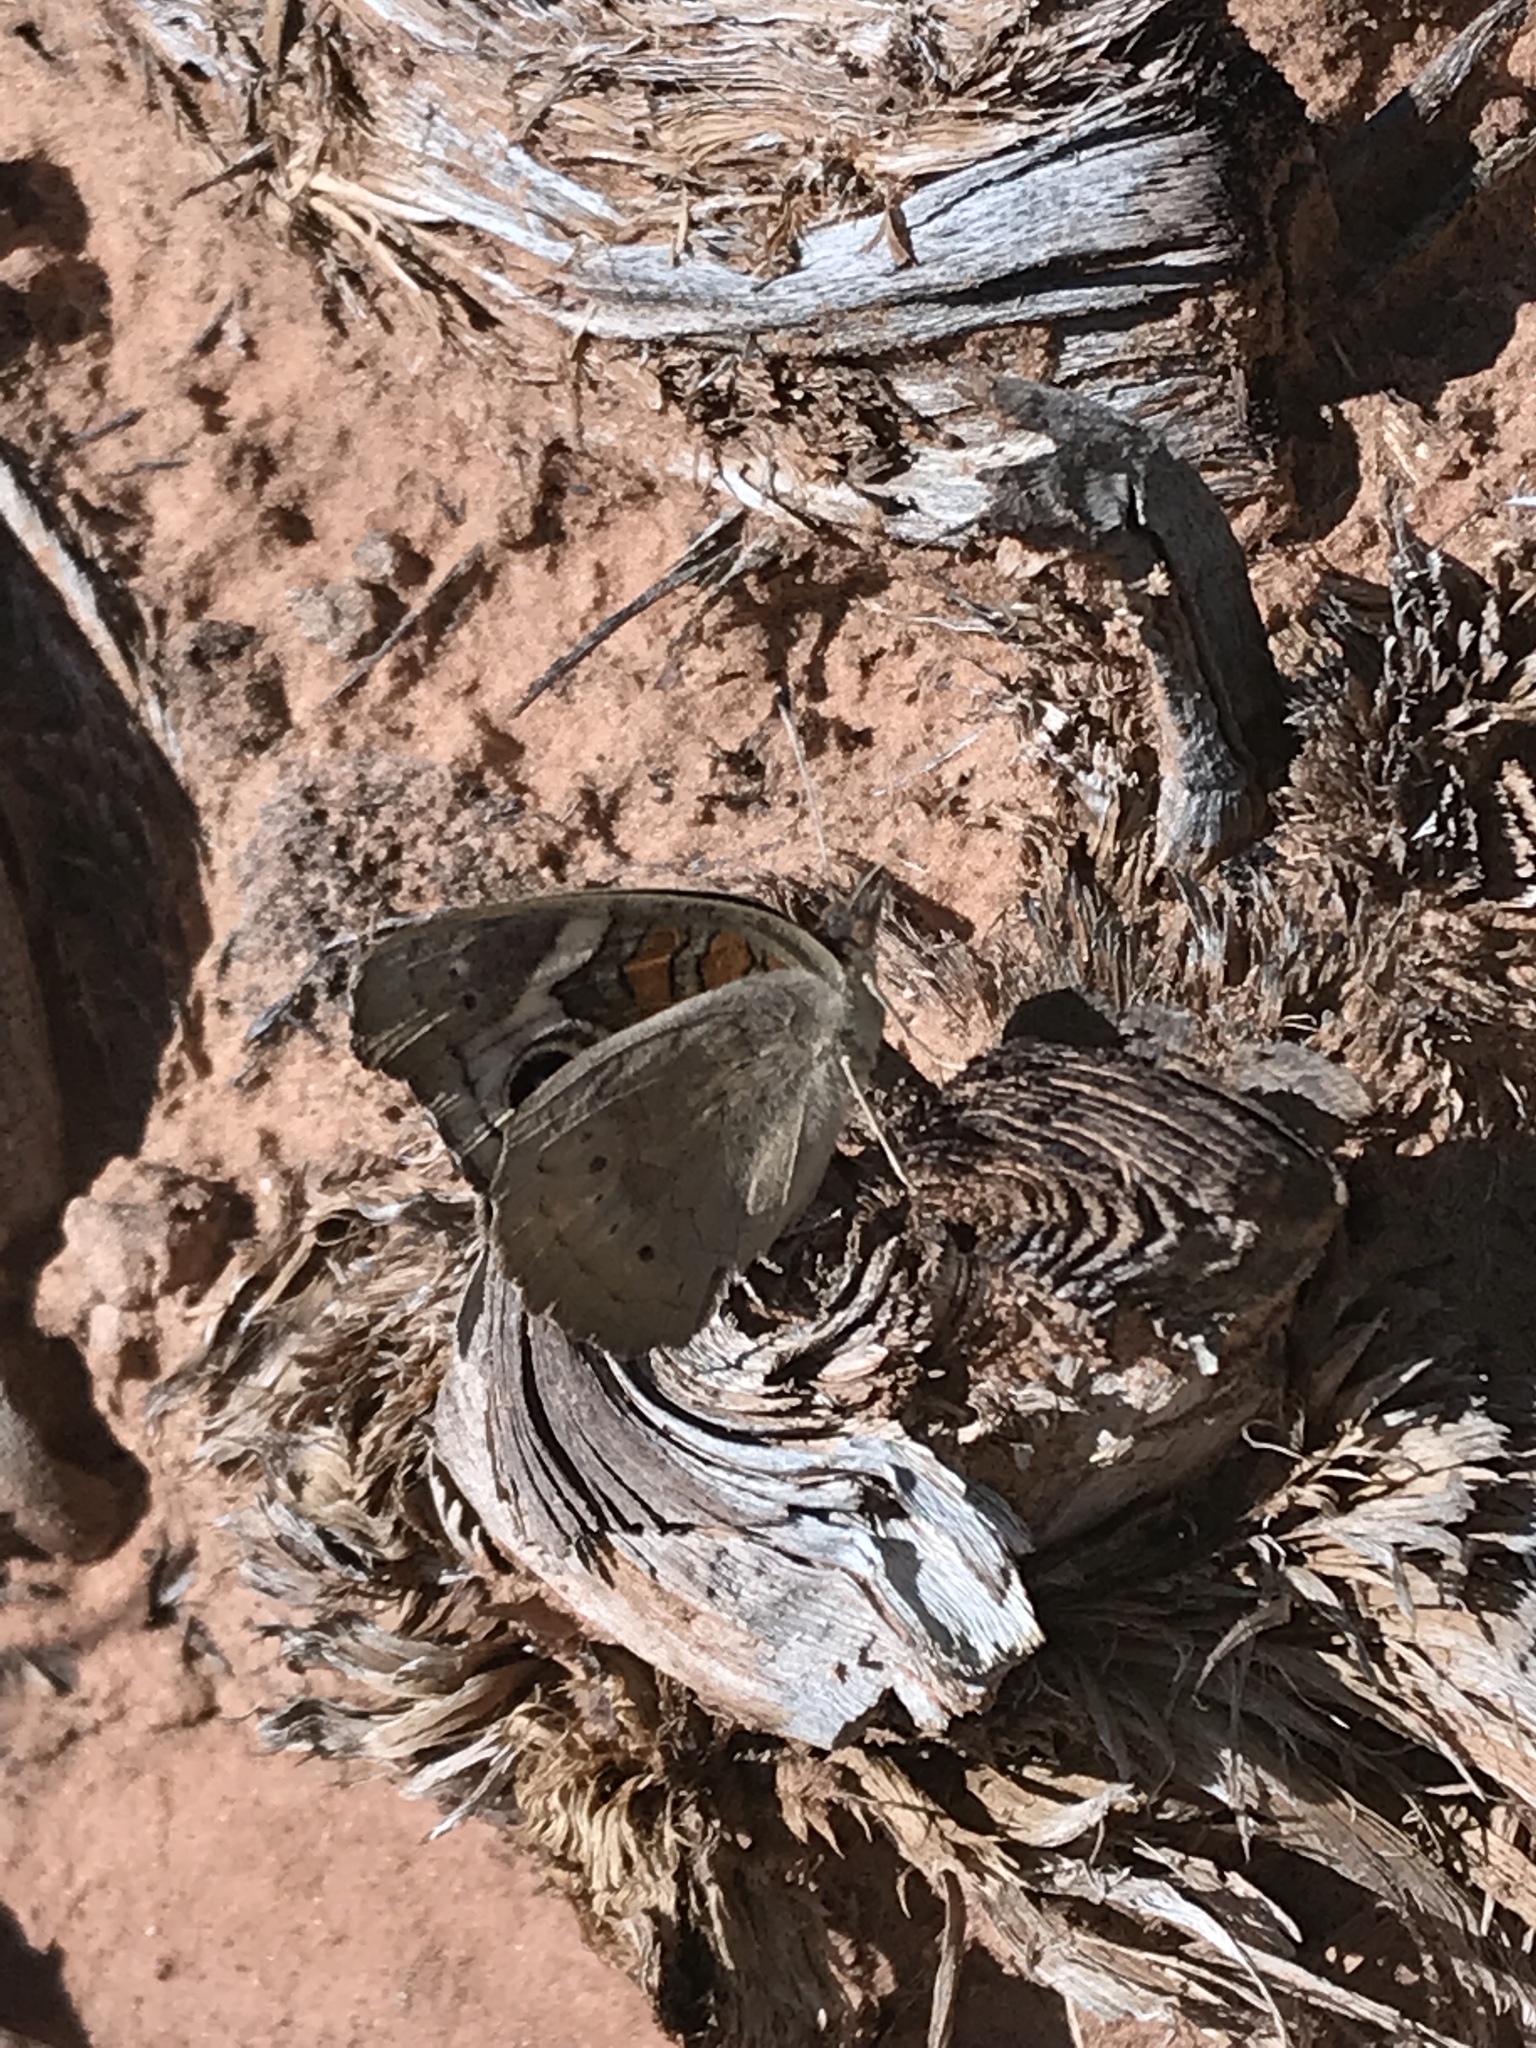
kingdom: Animalia
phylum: Arthropoda
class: Insecta
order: Lepidoptera
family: Nymphalidae
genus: Junonia
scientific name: Junonia grisea
